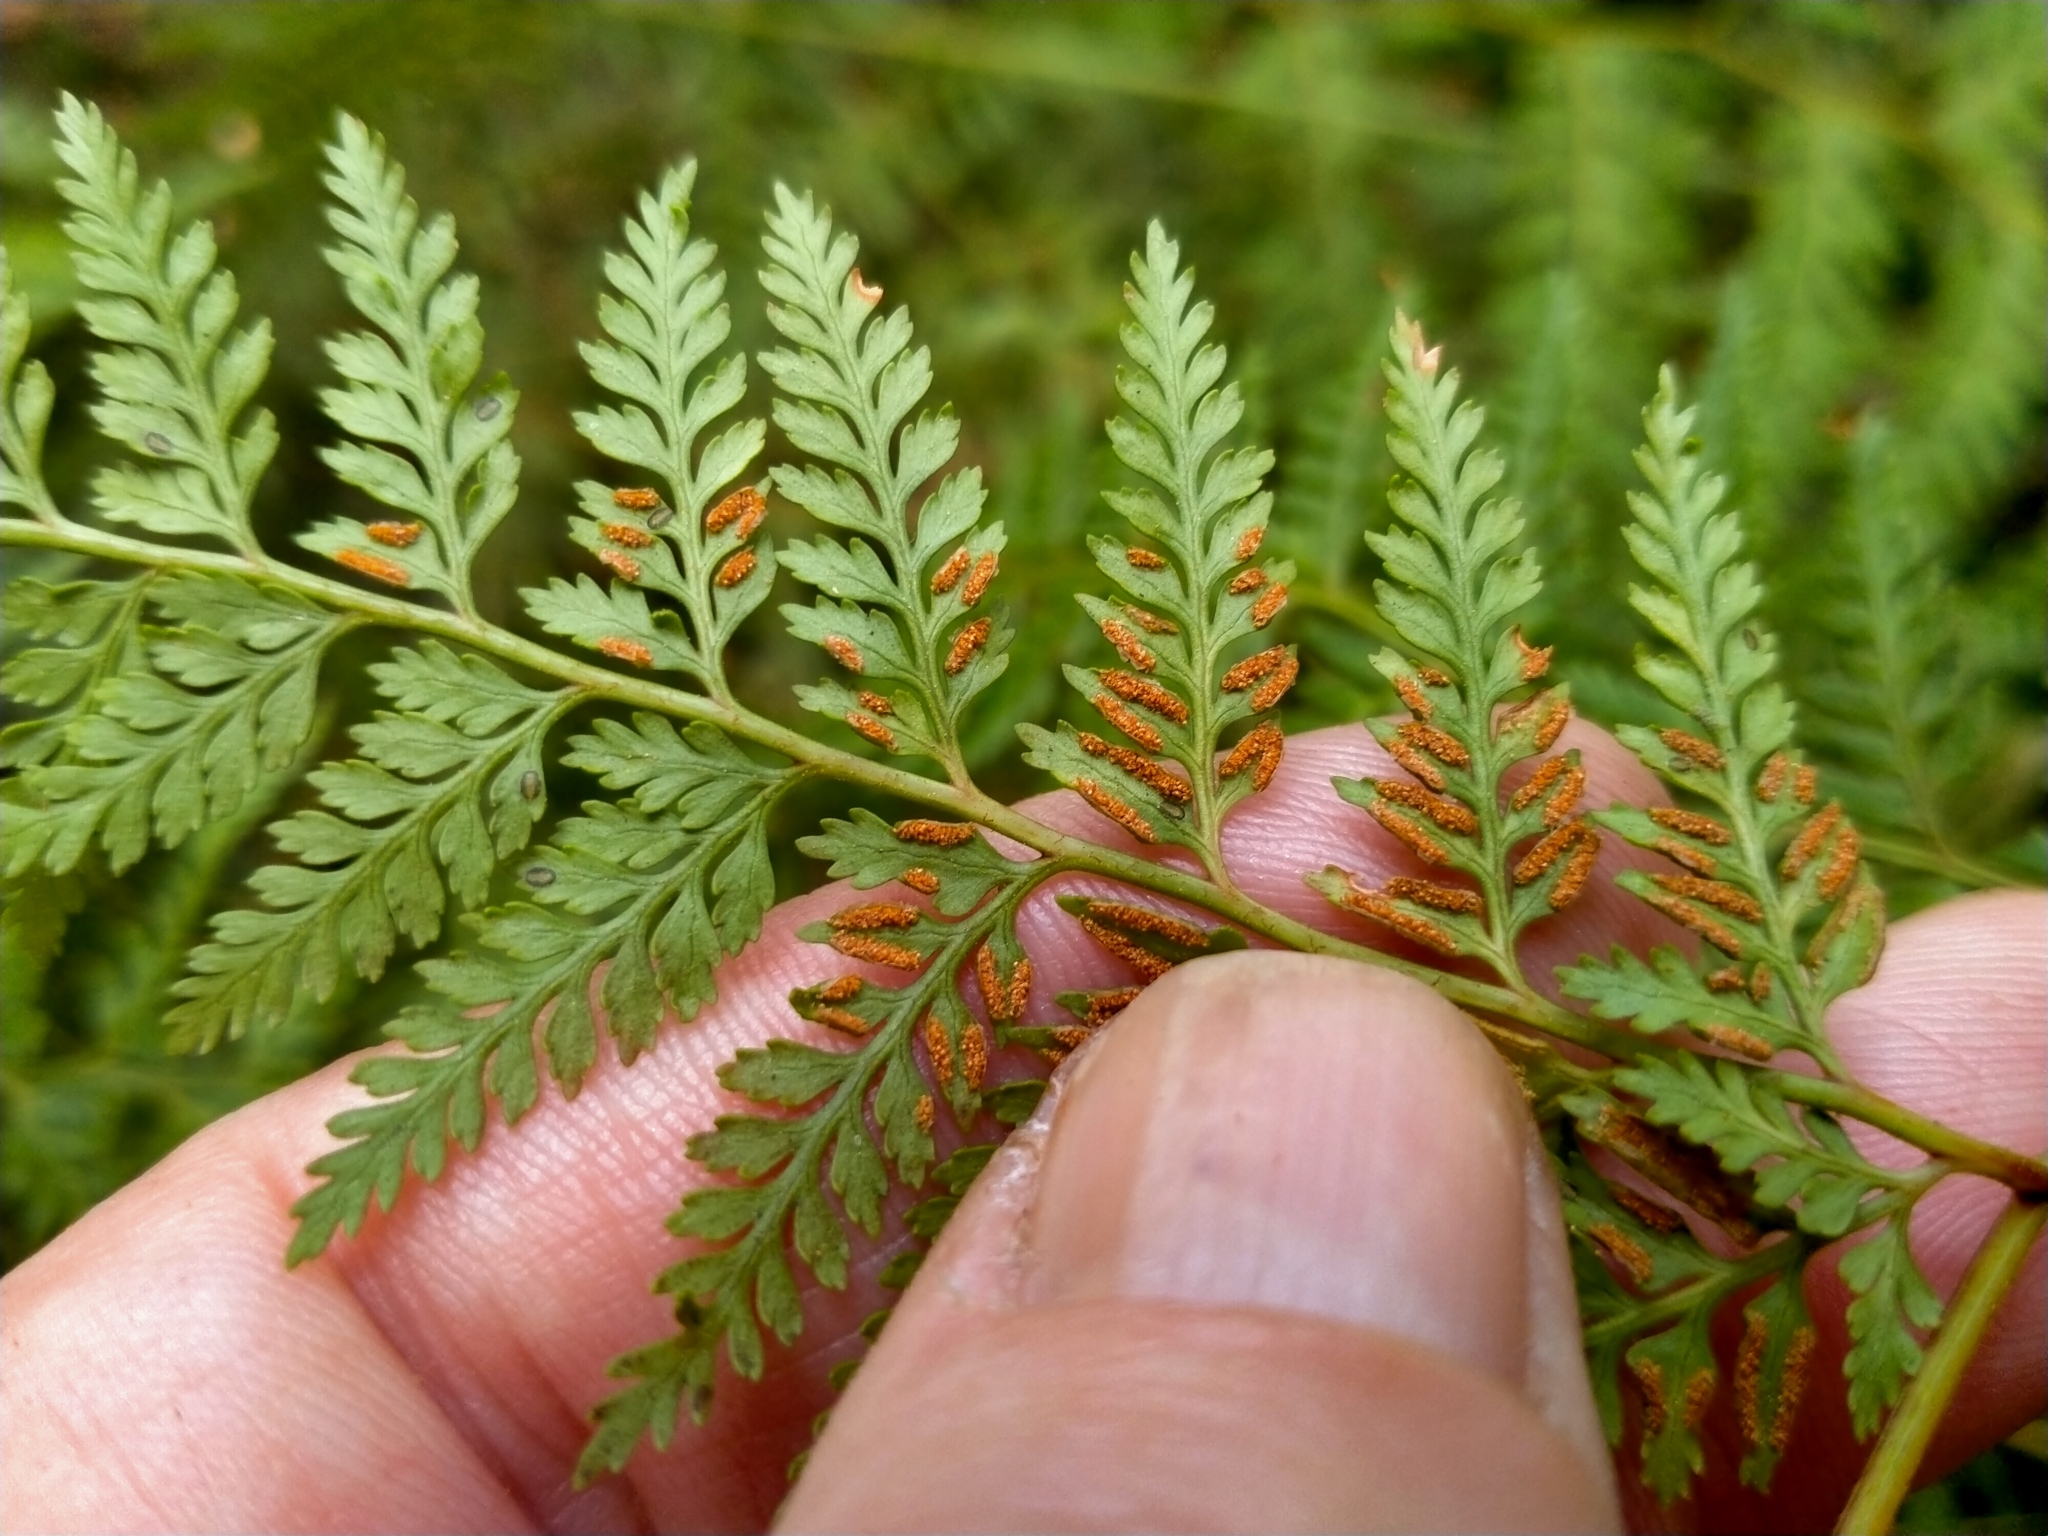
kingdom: Plantae
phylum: Tracheophyta
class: Polypodiopsida
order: Polypodiales
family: Dennstaedtiaceae
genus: Paesia
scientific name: Paesia scaberula
